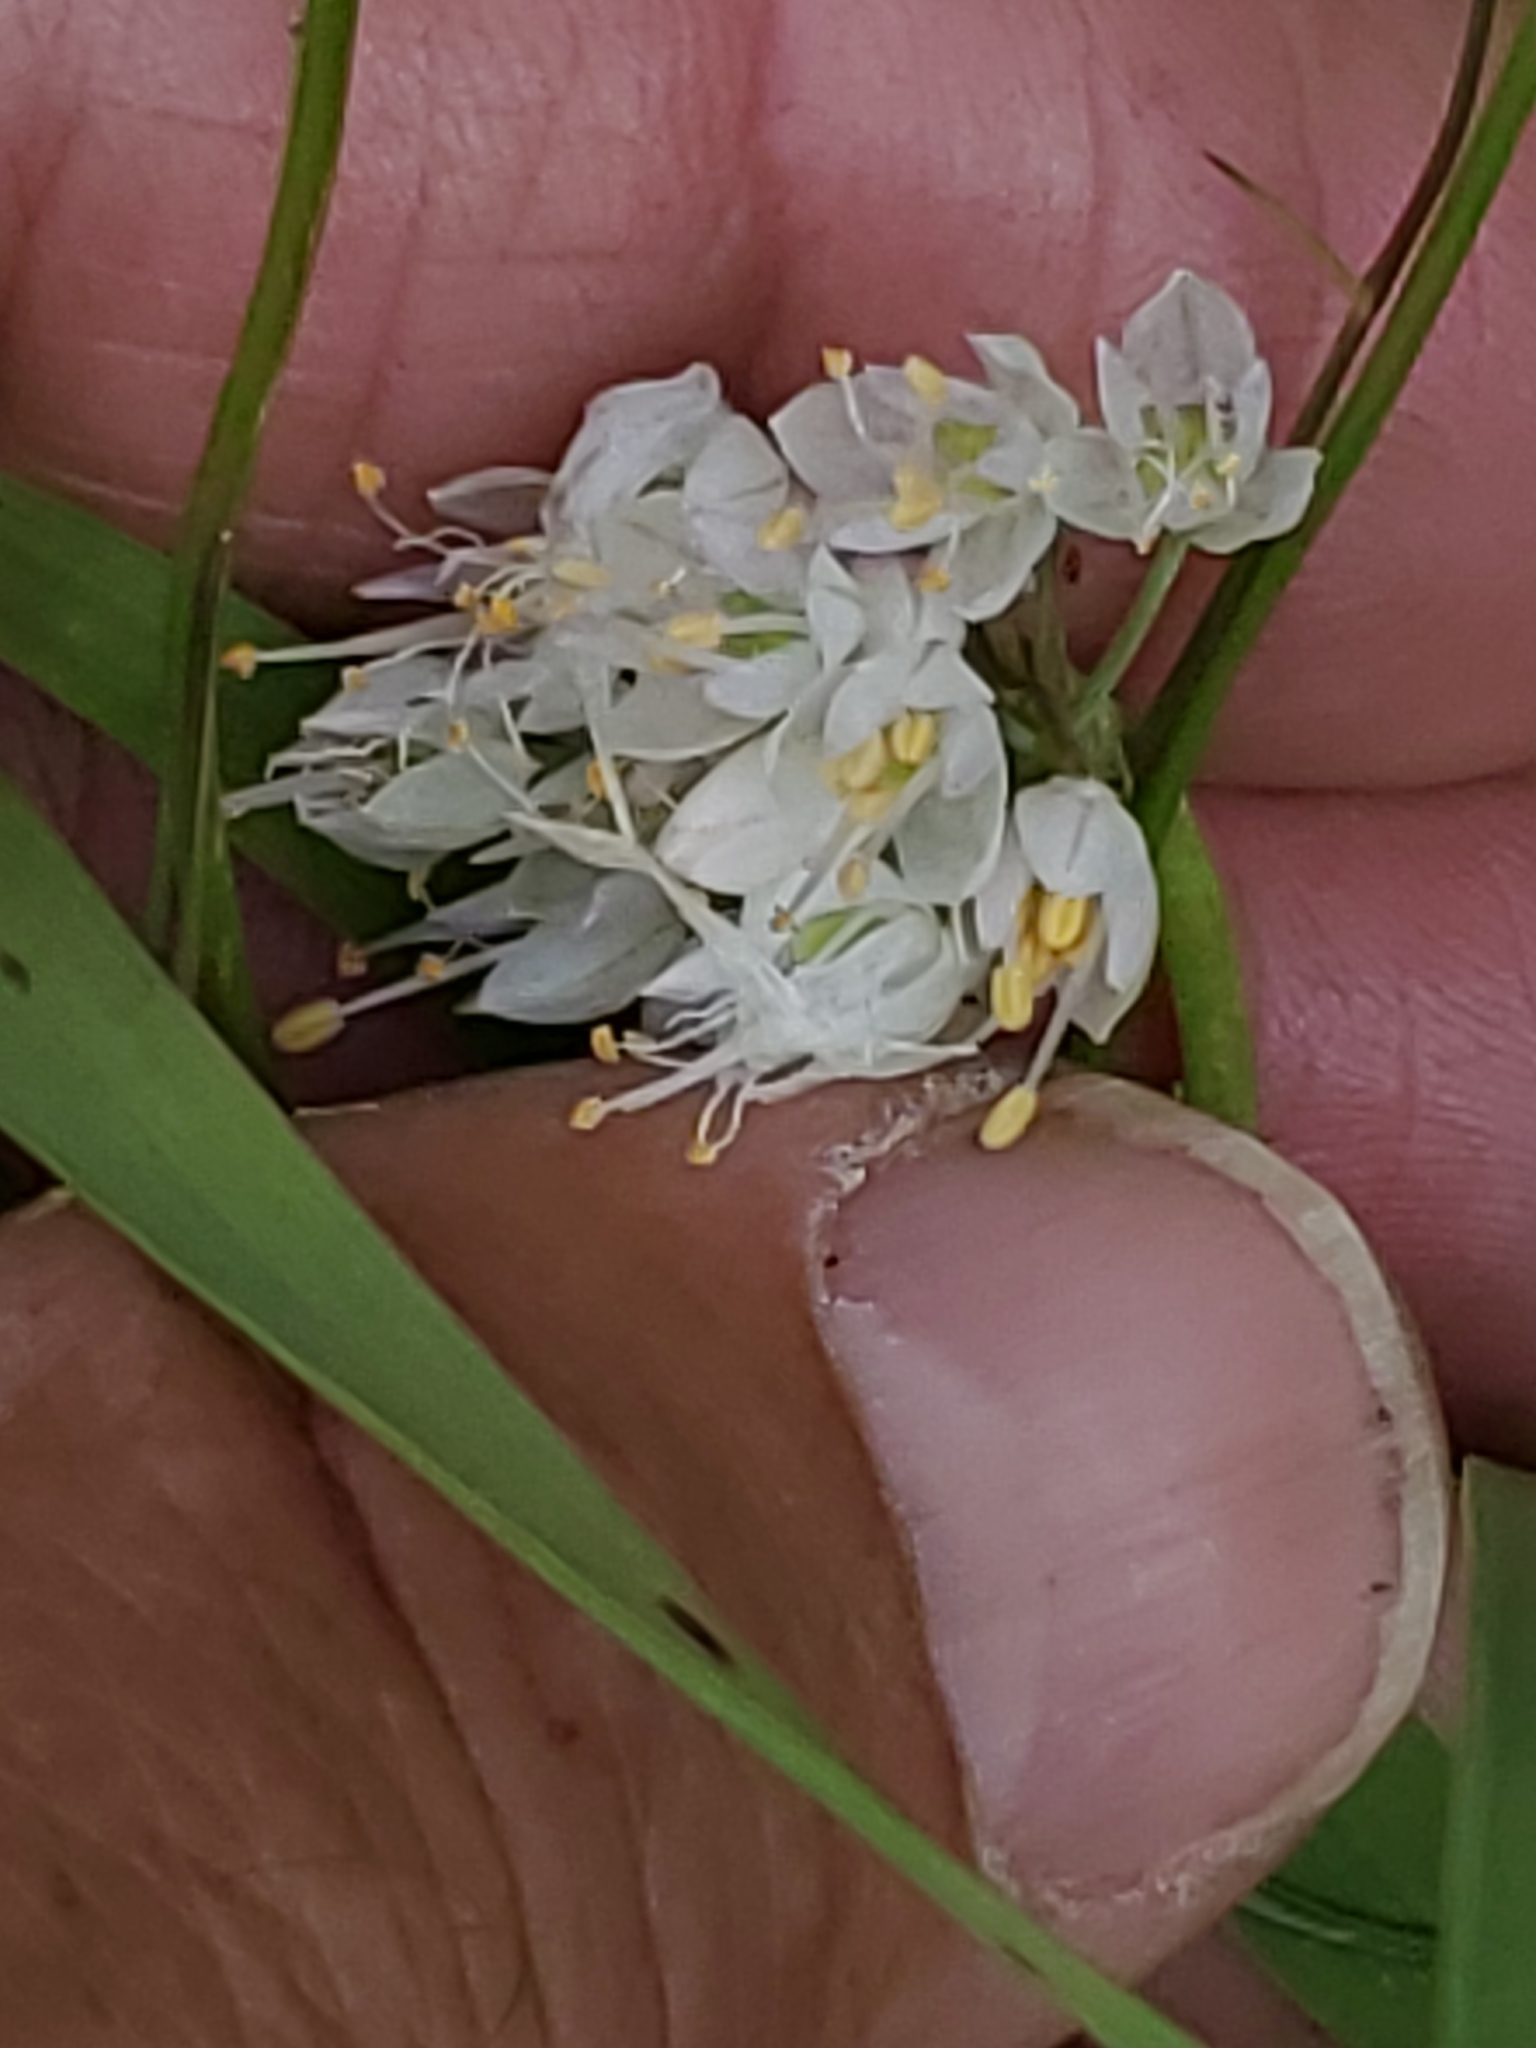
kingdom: Plantae
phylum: Tracheophyta
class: Liliopsida
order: Asparagales
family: Amaryllidaceae
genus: Allium
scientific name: Allium cernuum
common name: Nodding onion
